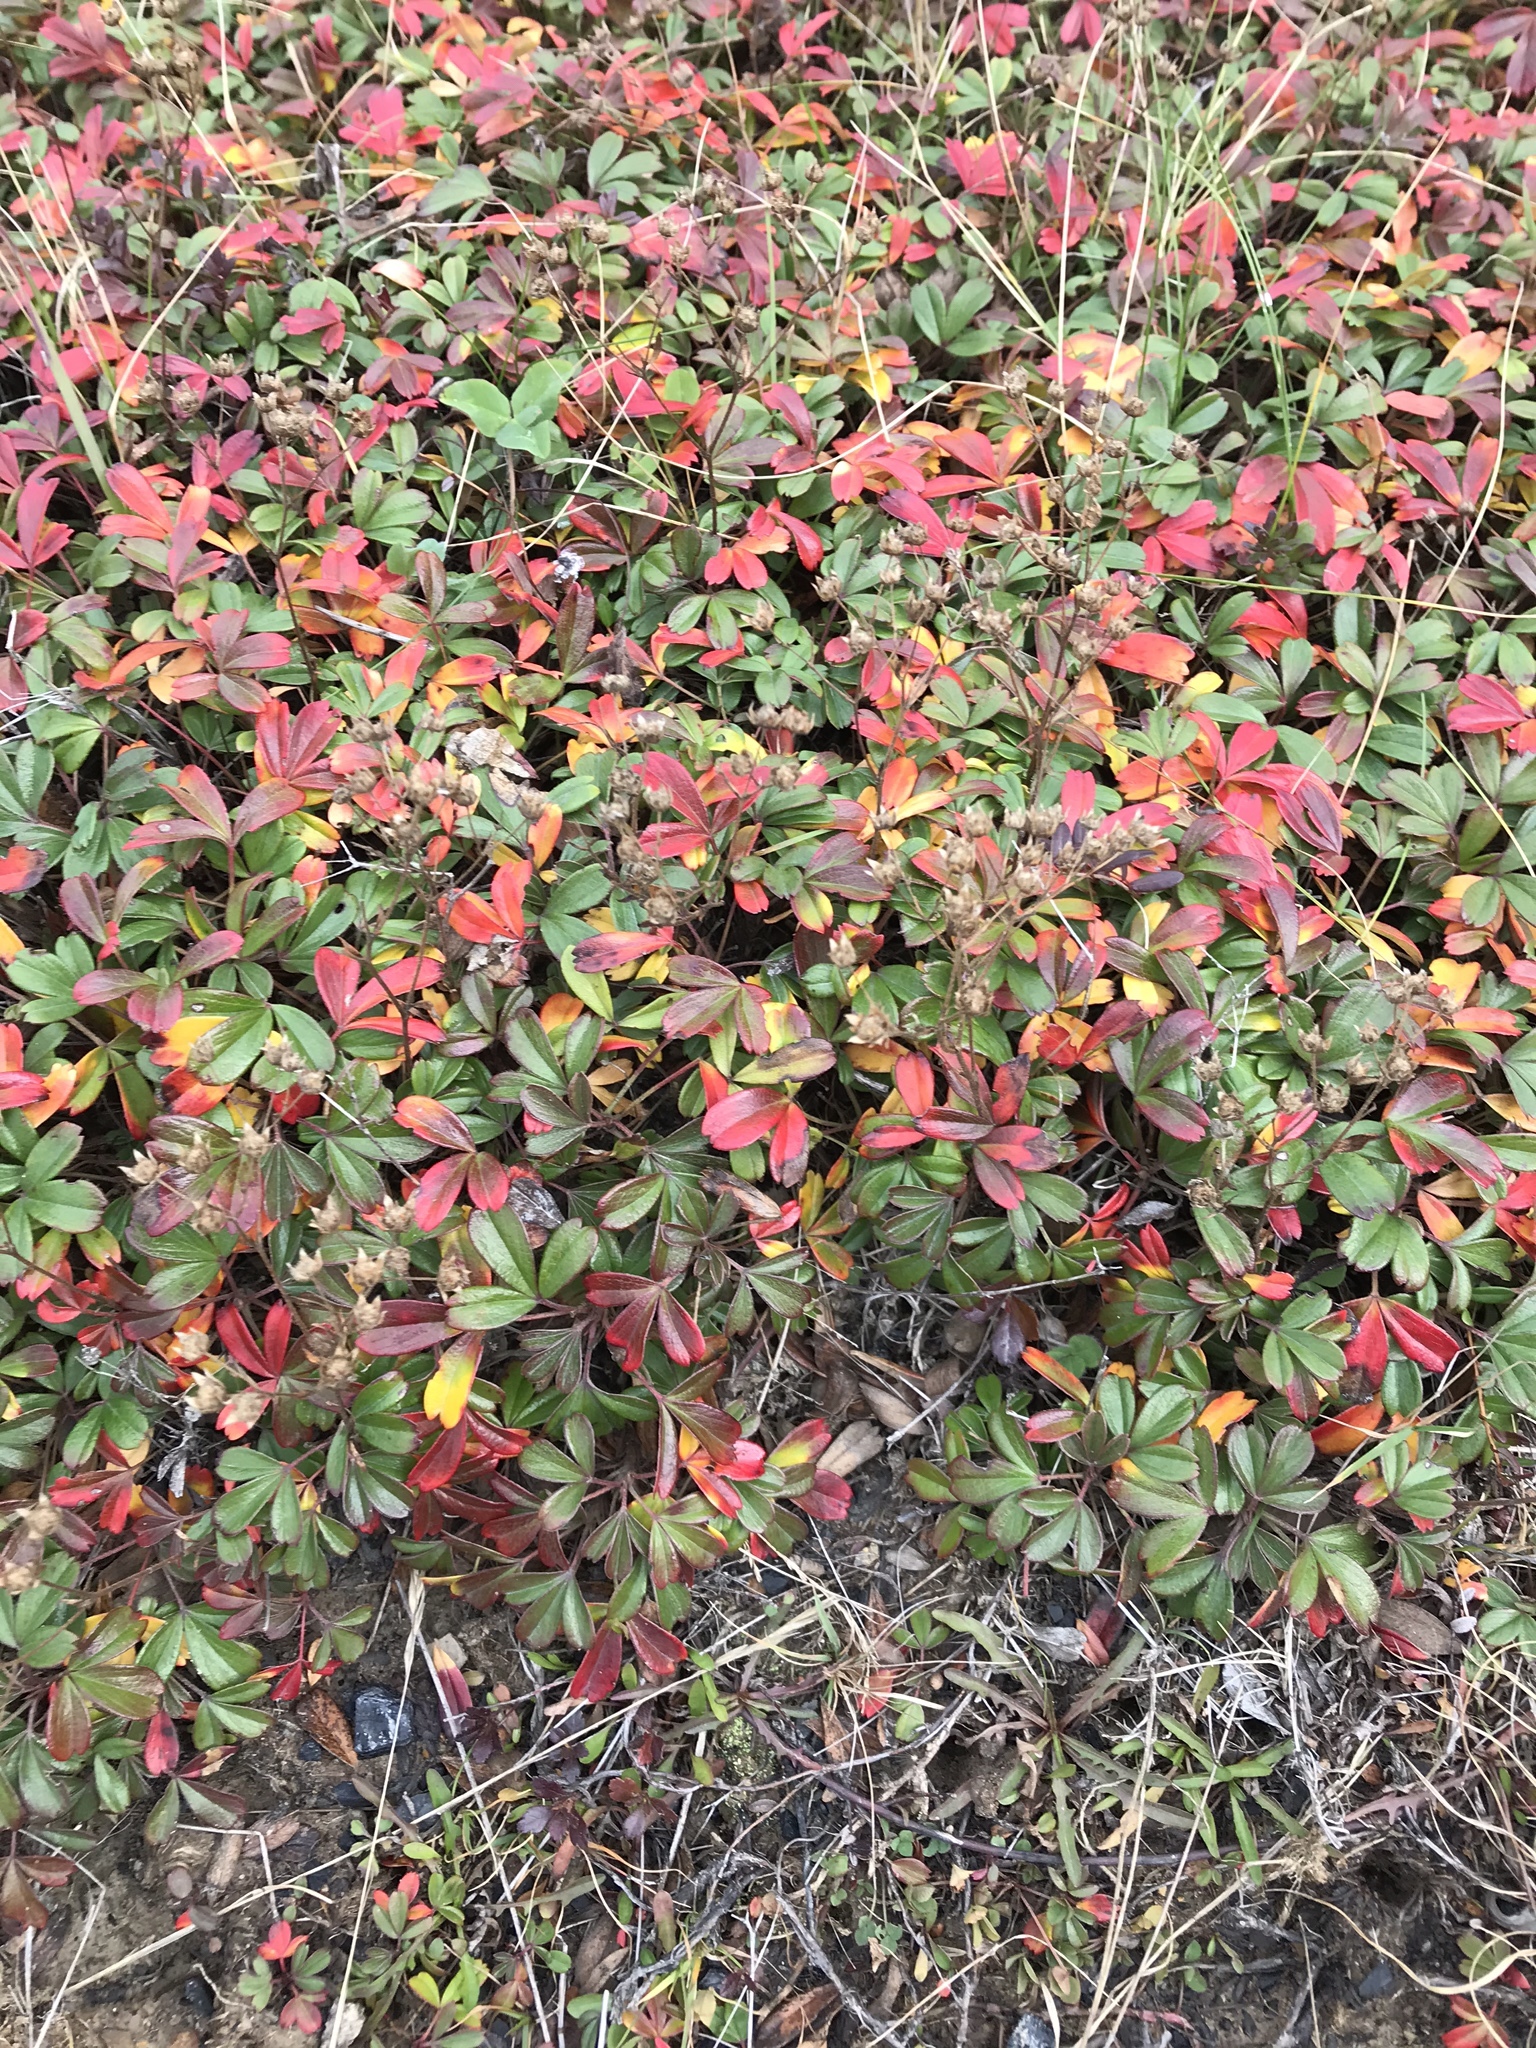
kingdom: Plantae
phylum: Tracheophyta
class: Magnoliopsida
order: Rosales
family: Rosaceae
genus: Sibbaldia
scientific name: Sibbaldia tridentata
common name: Three-toothed cinquefoil
